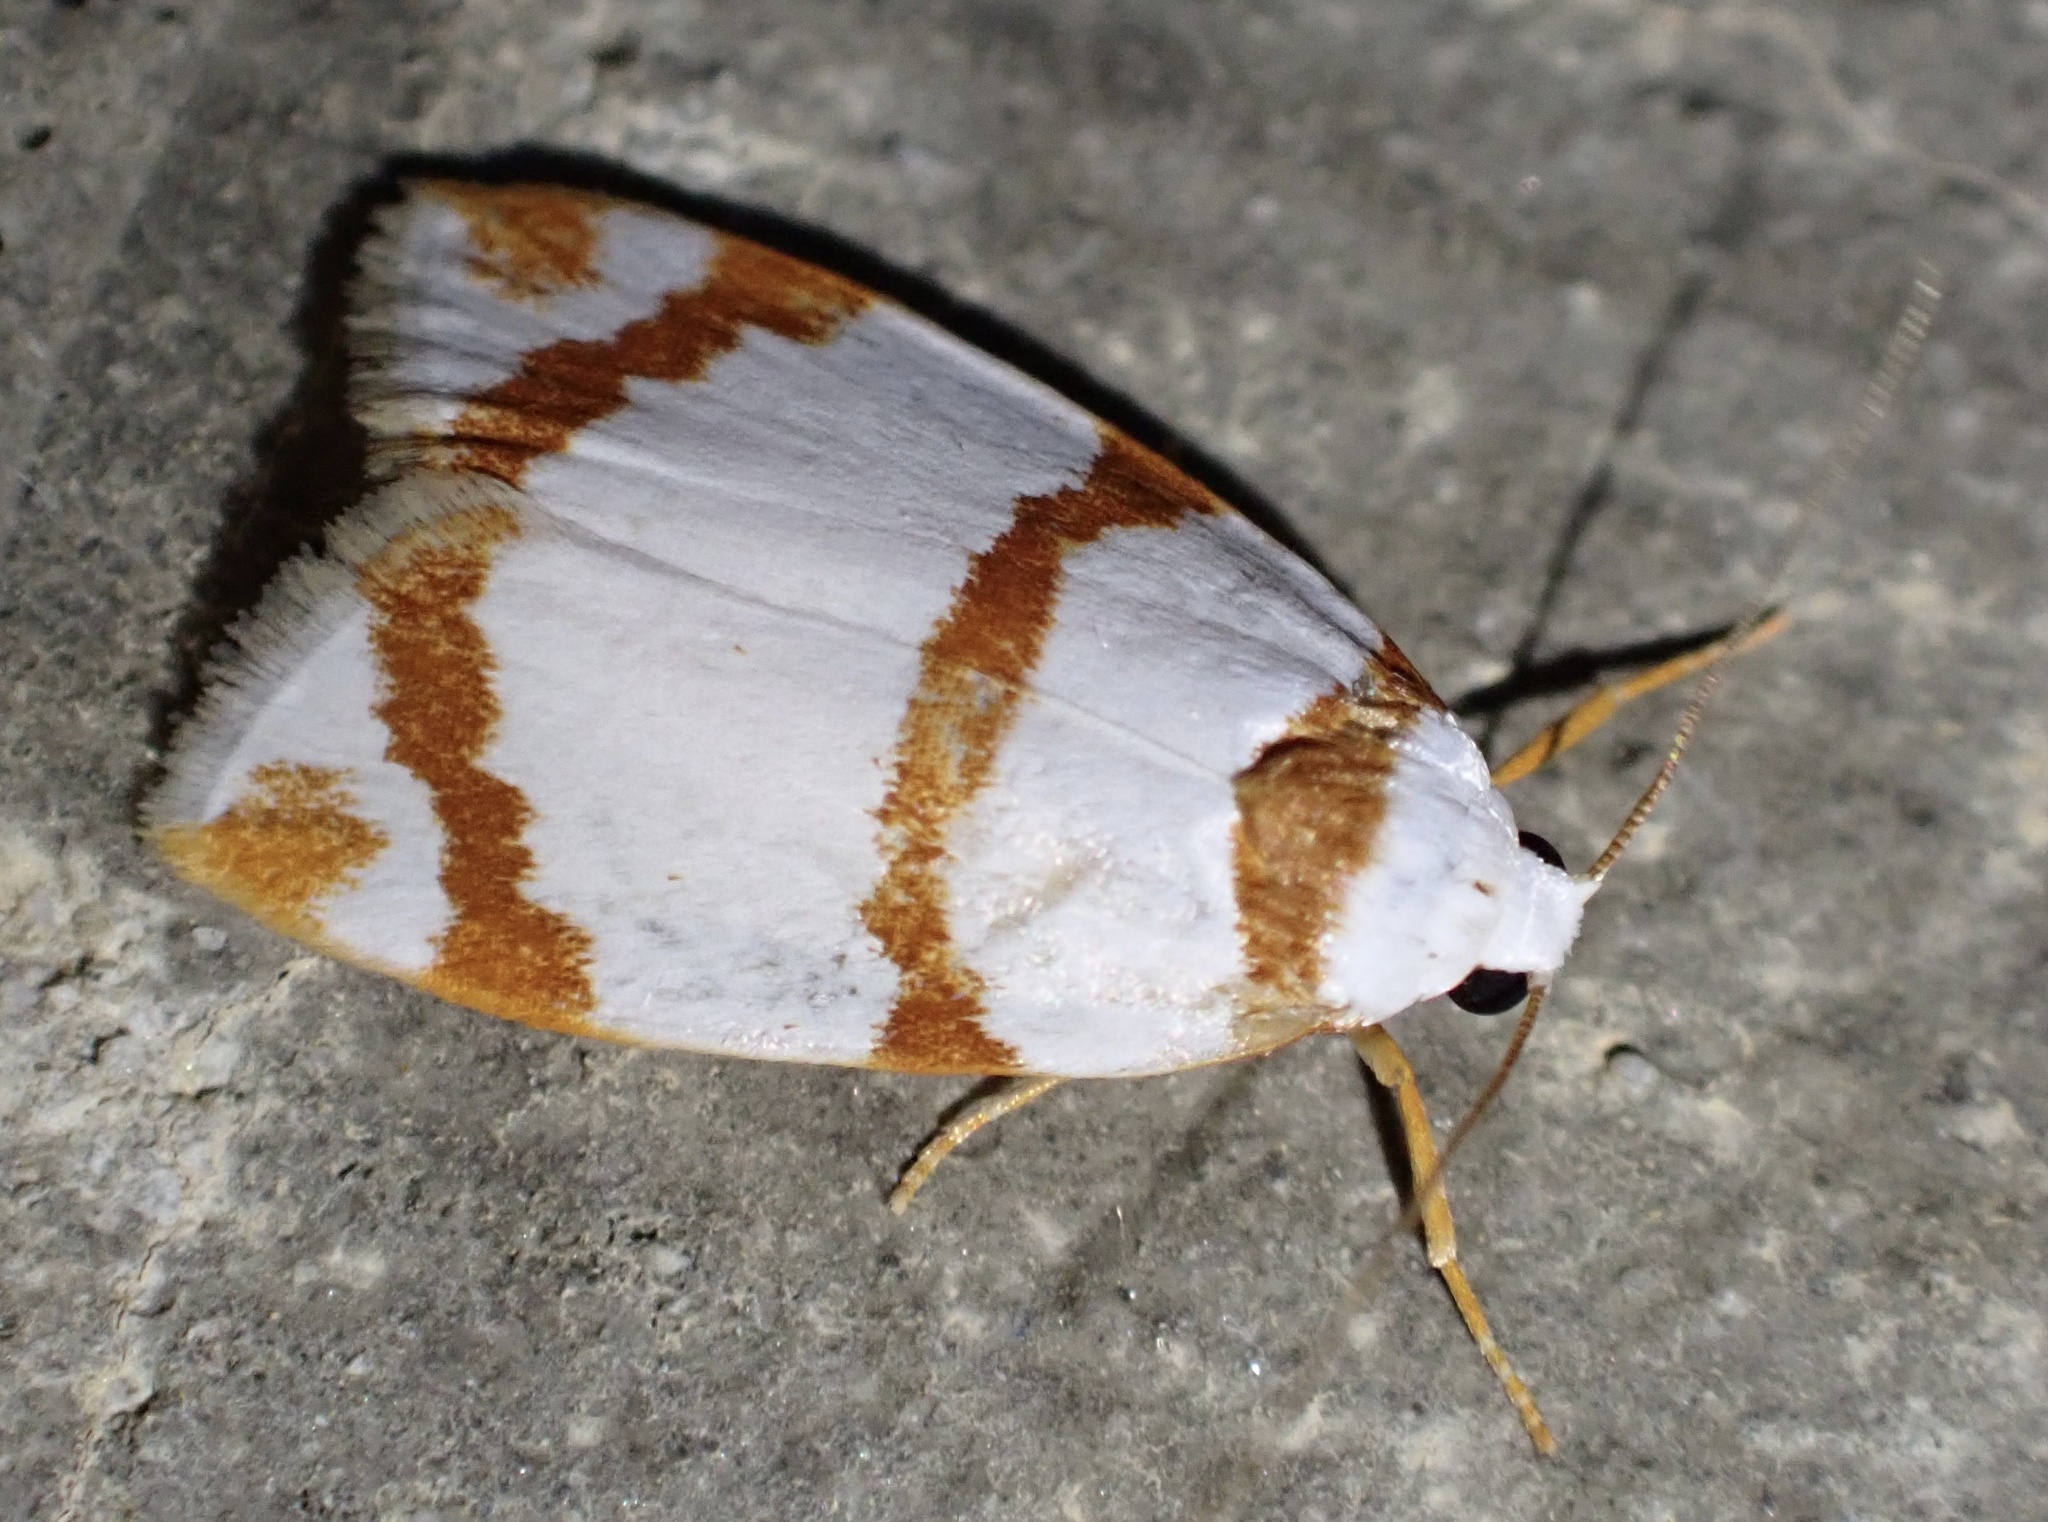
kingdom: Animalia
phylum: Arthropoda
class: Insecta
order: Lepidoptera
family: Erebidae
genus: Thermograpta
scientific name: Thermograpta rufizonata
